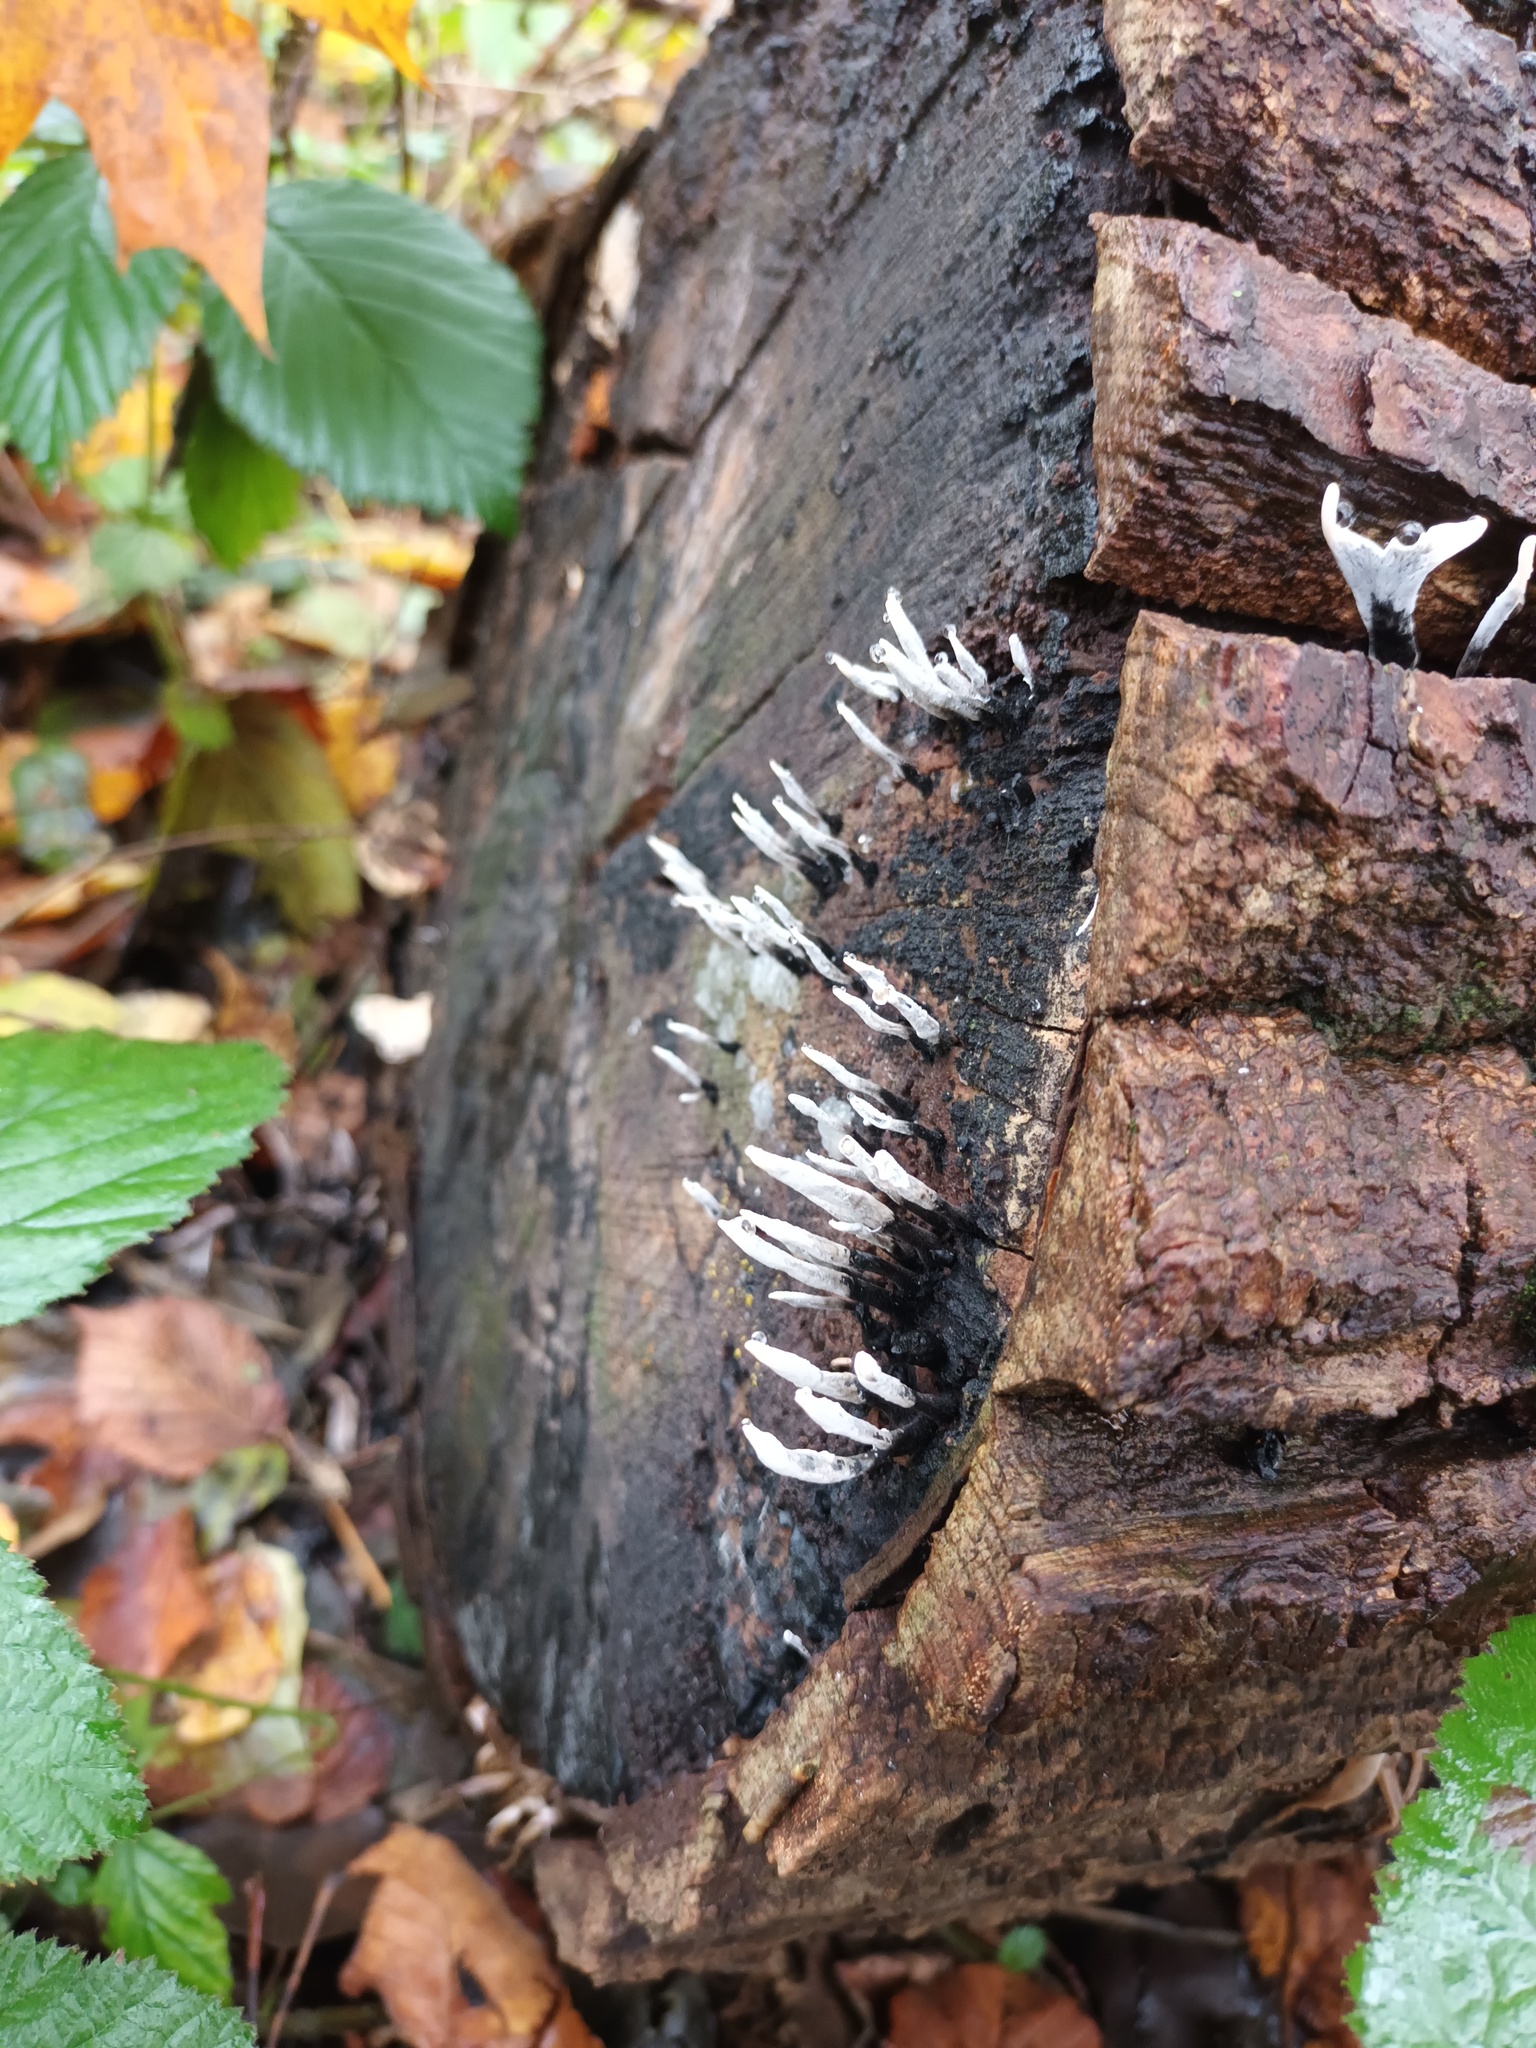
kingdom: Fungi
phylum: Ascomycota
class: Sordariomycetes
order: Xylariales
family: Xylariaceae
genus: Xylaria
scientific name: Xylaria hypoxylon
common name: Candle-snuff fungus
